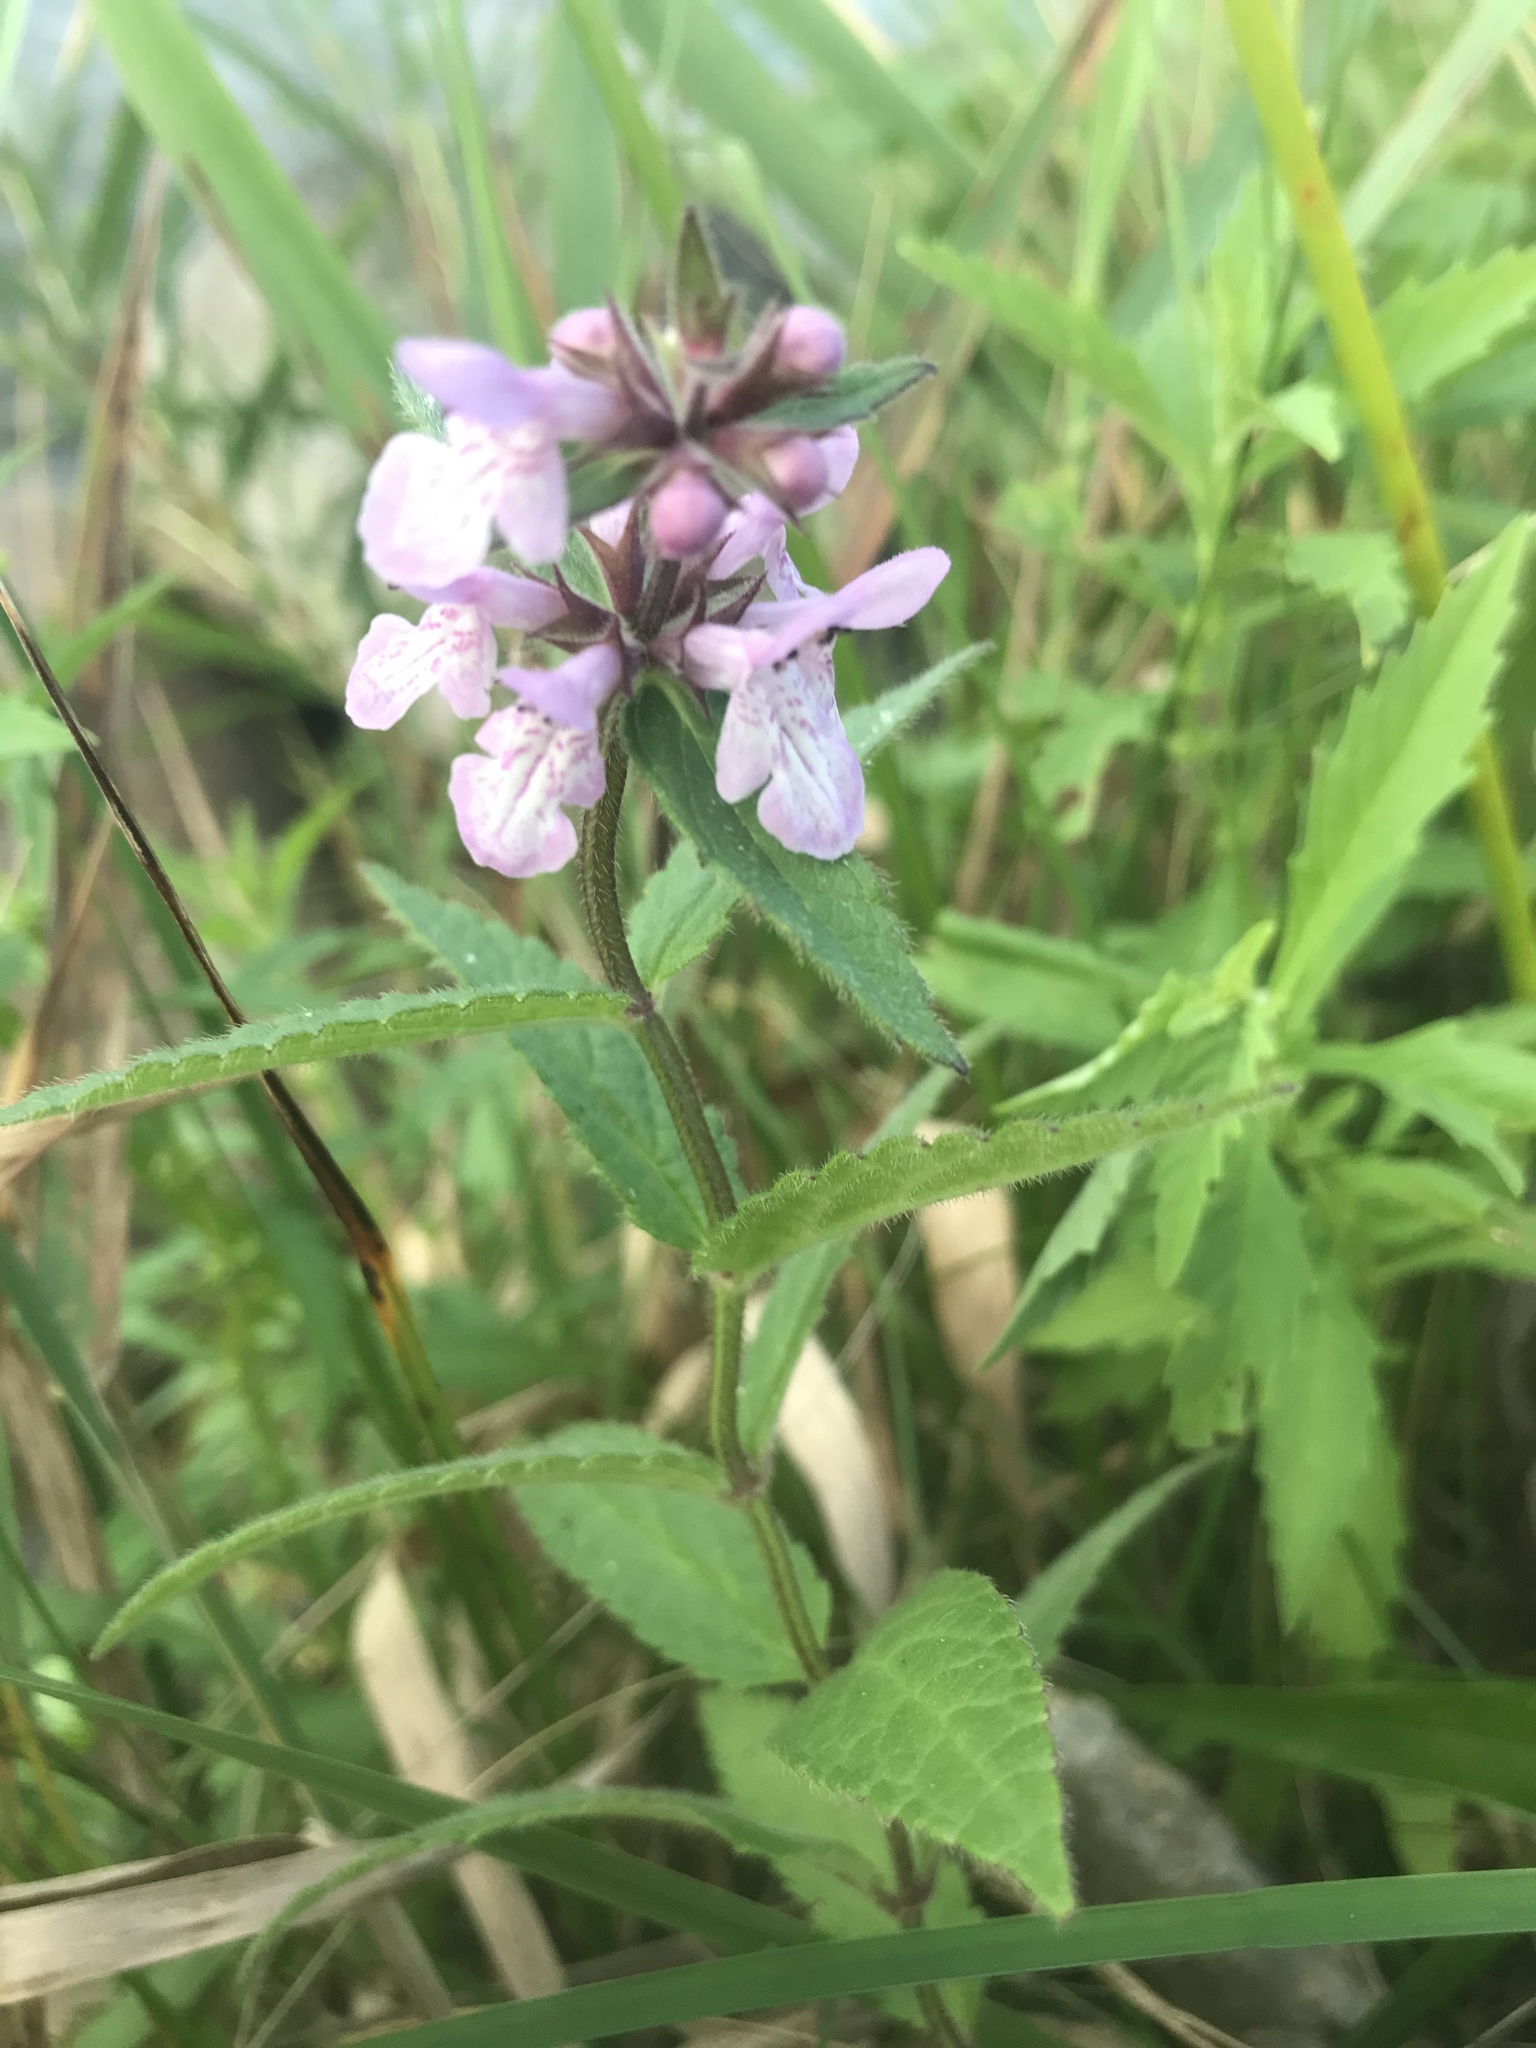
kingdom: Plantae
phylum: Tracheophyta
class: Magnoliopsida
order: Lamiales
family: Lamiaceae
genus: Stachys
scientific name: Stachys palustris
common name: Marsh woundwort
